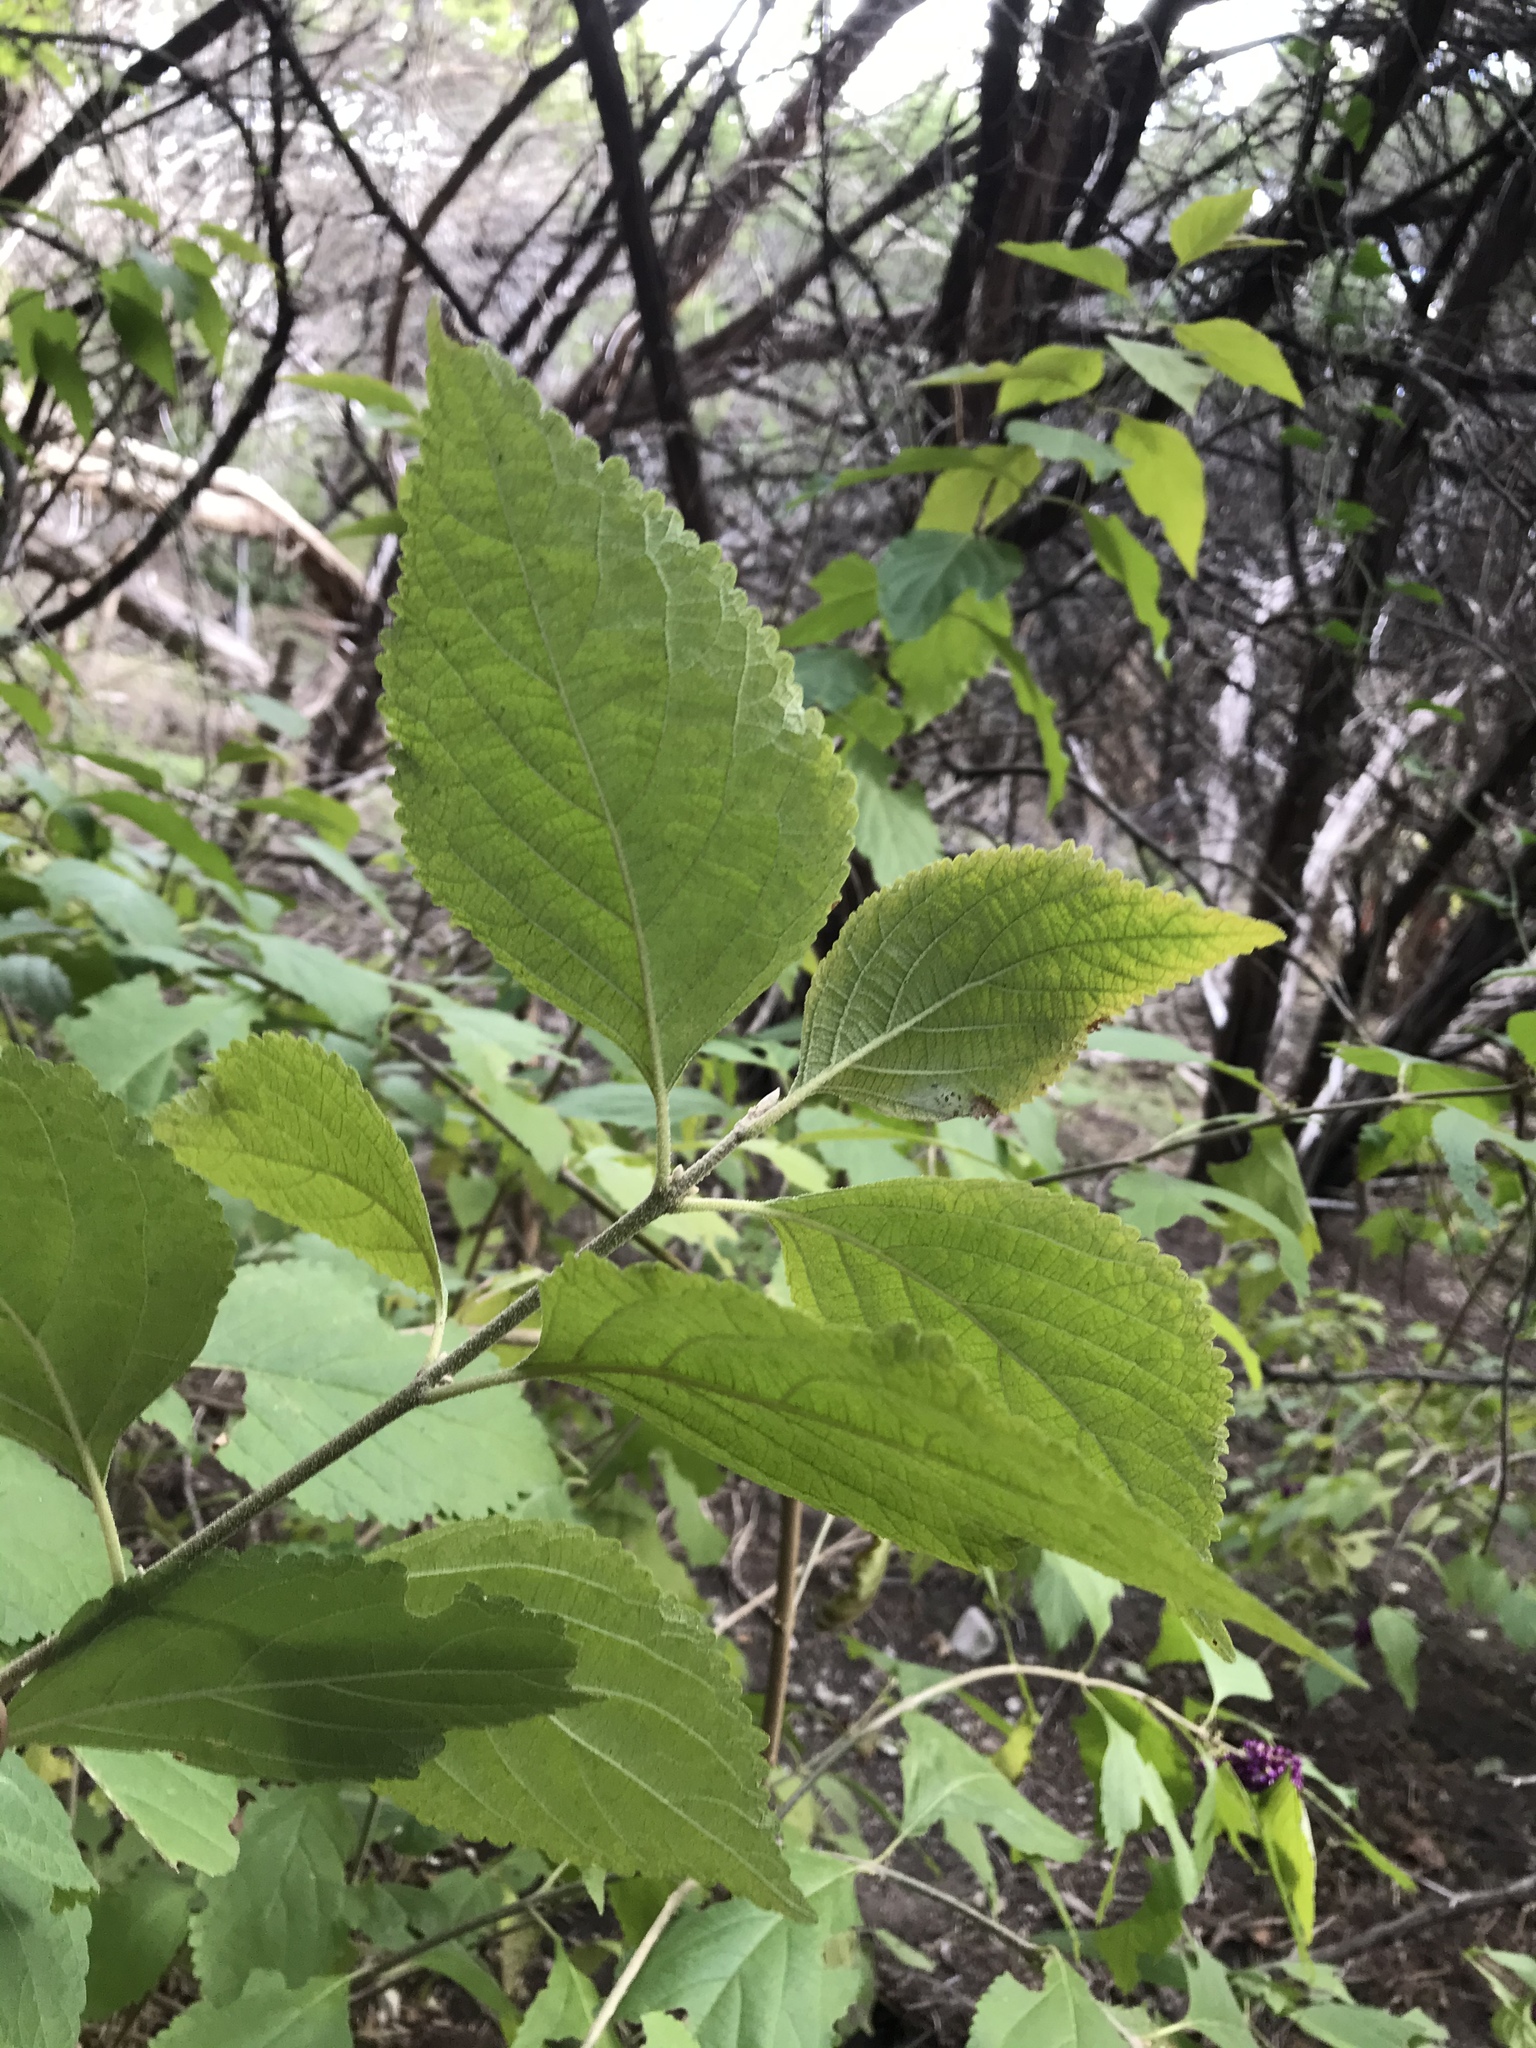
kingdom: Plantae
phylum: Tracheophyta
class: Magnoliopsida
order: Lamiales
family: Lamiaceae
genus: Callicarpa
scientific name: Callicarpa americana
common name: American beautyberry
